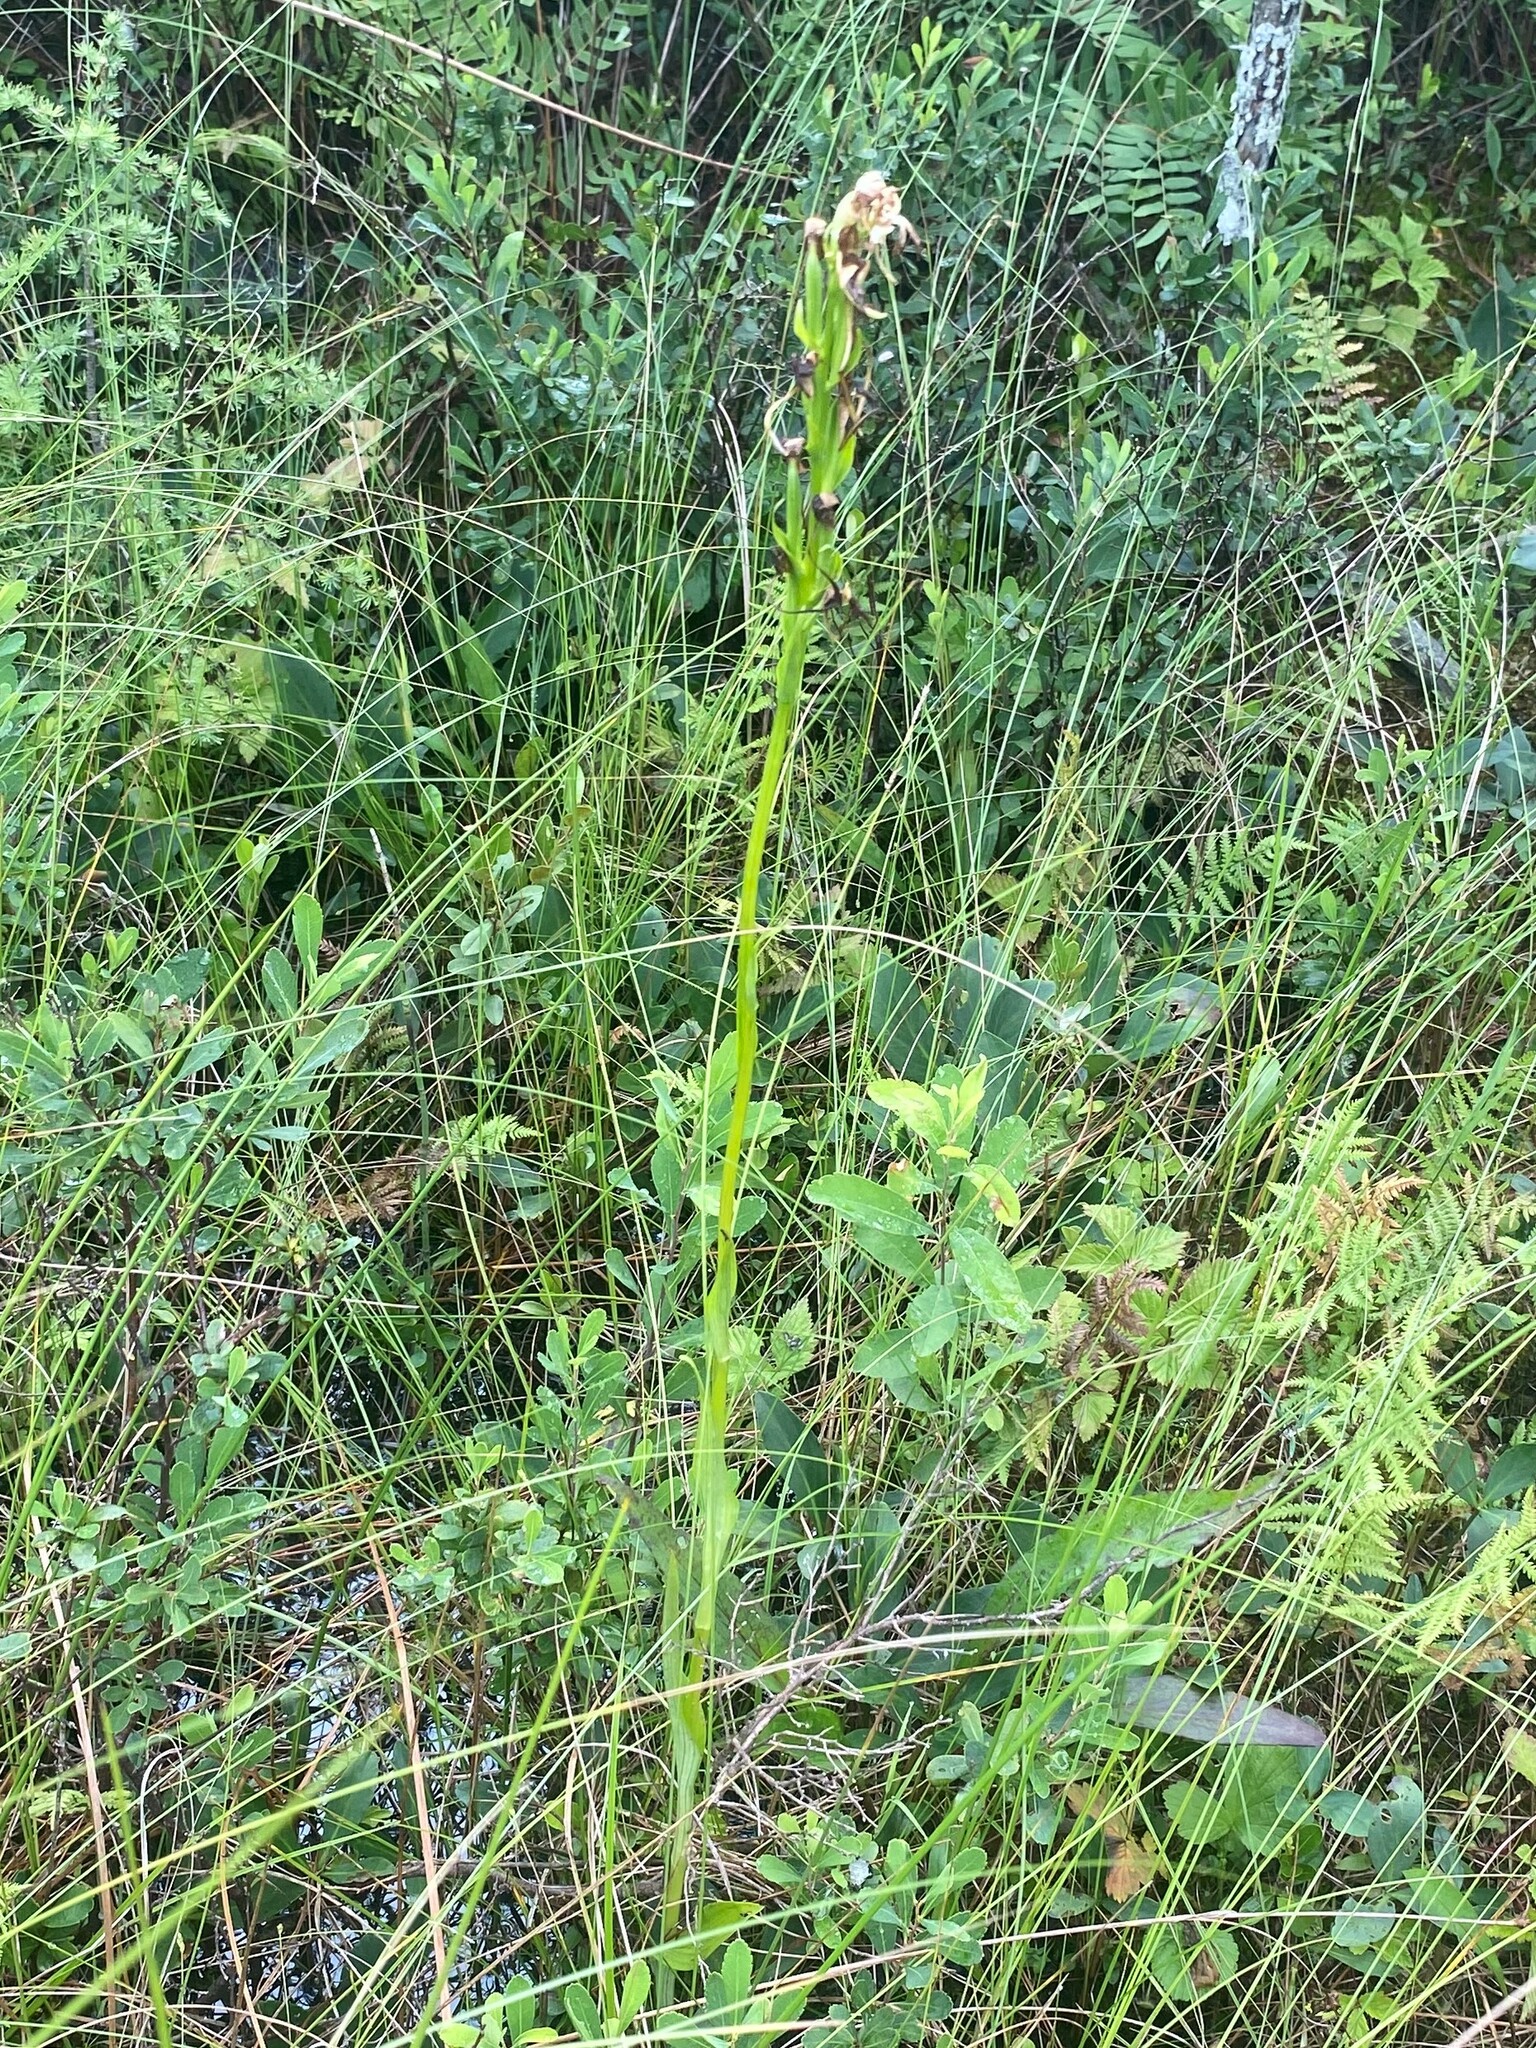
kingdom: Plantae
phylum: Tracheophyta
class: Liliopsida
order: Asparagales
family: Orchidaceae
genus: Platanthera
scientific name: Platanthera leucophaea
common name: Eastern prairie white-fringed orchid
